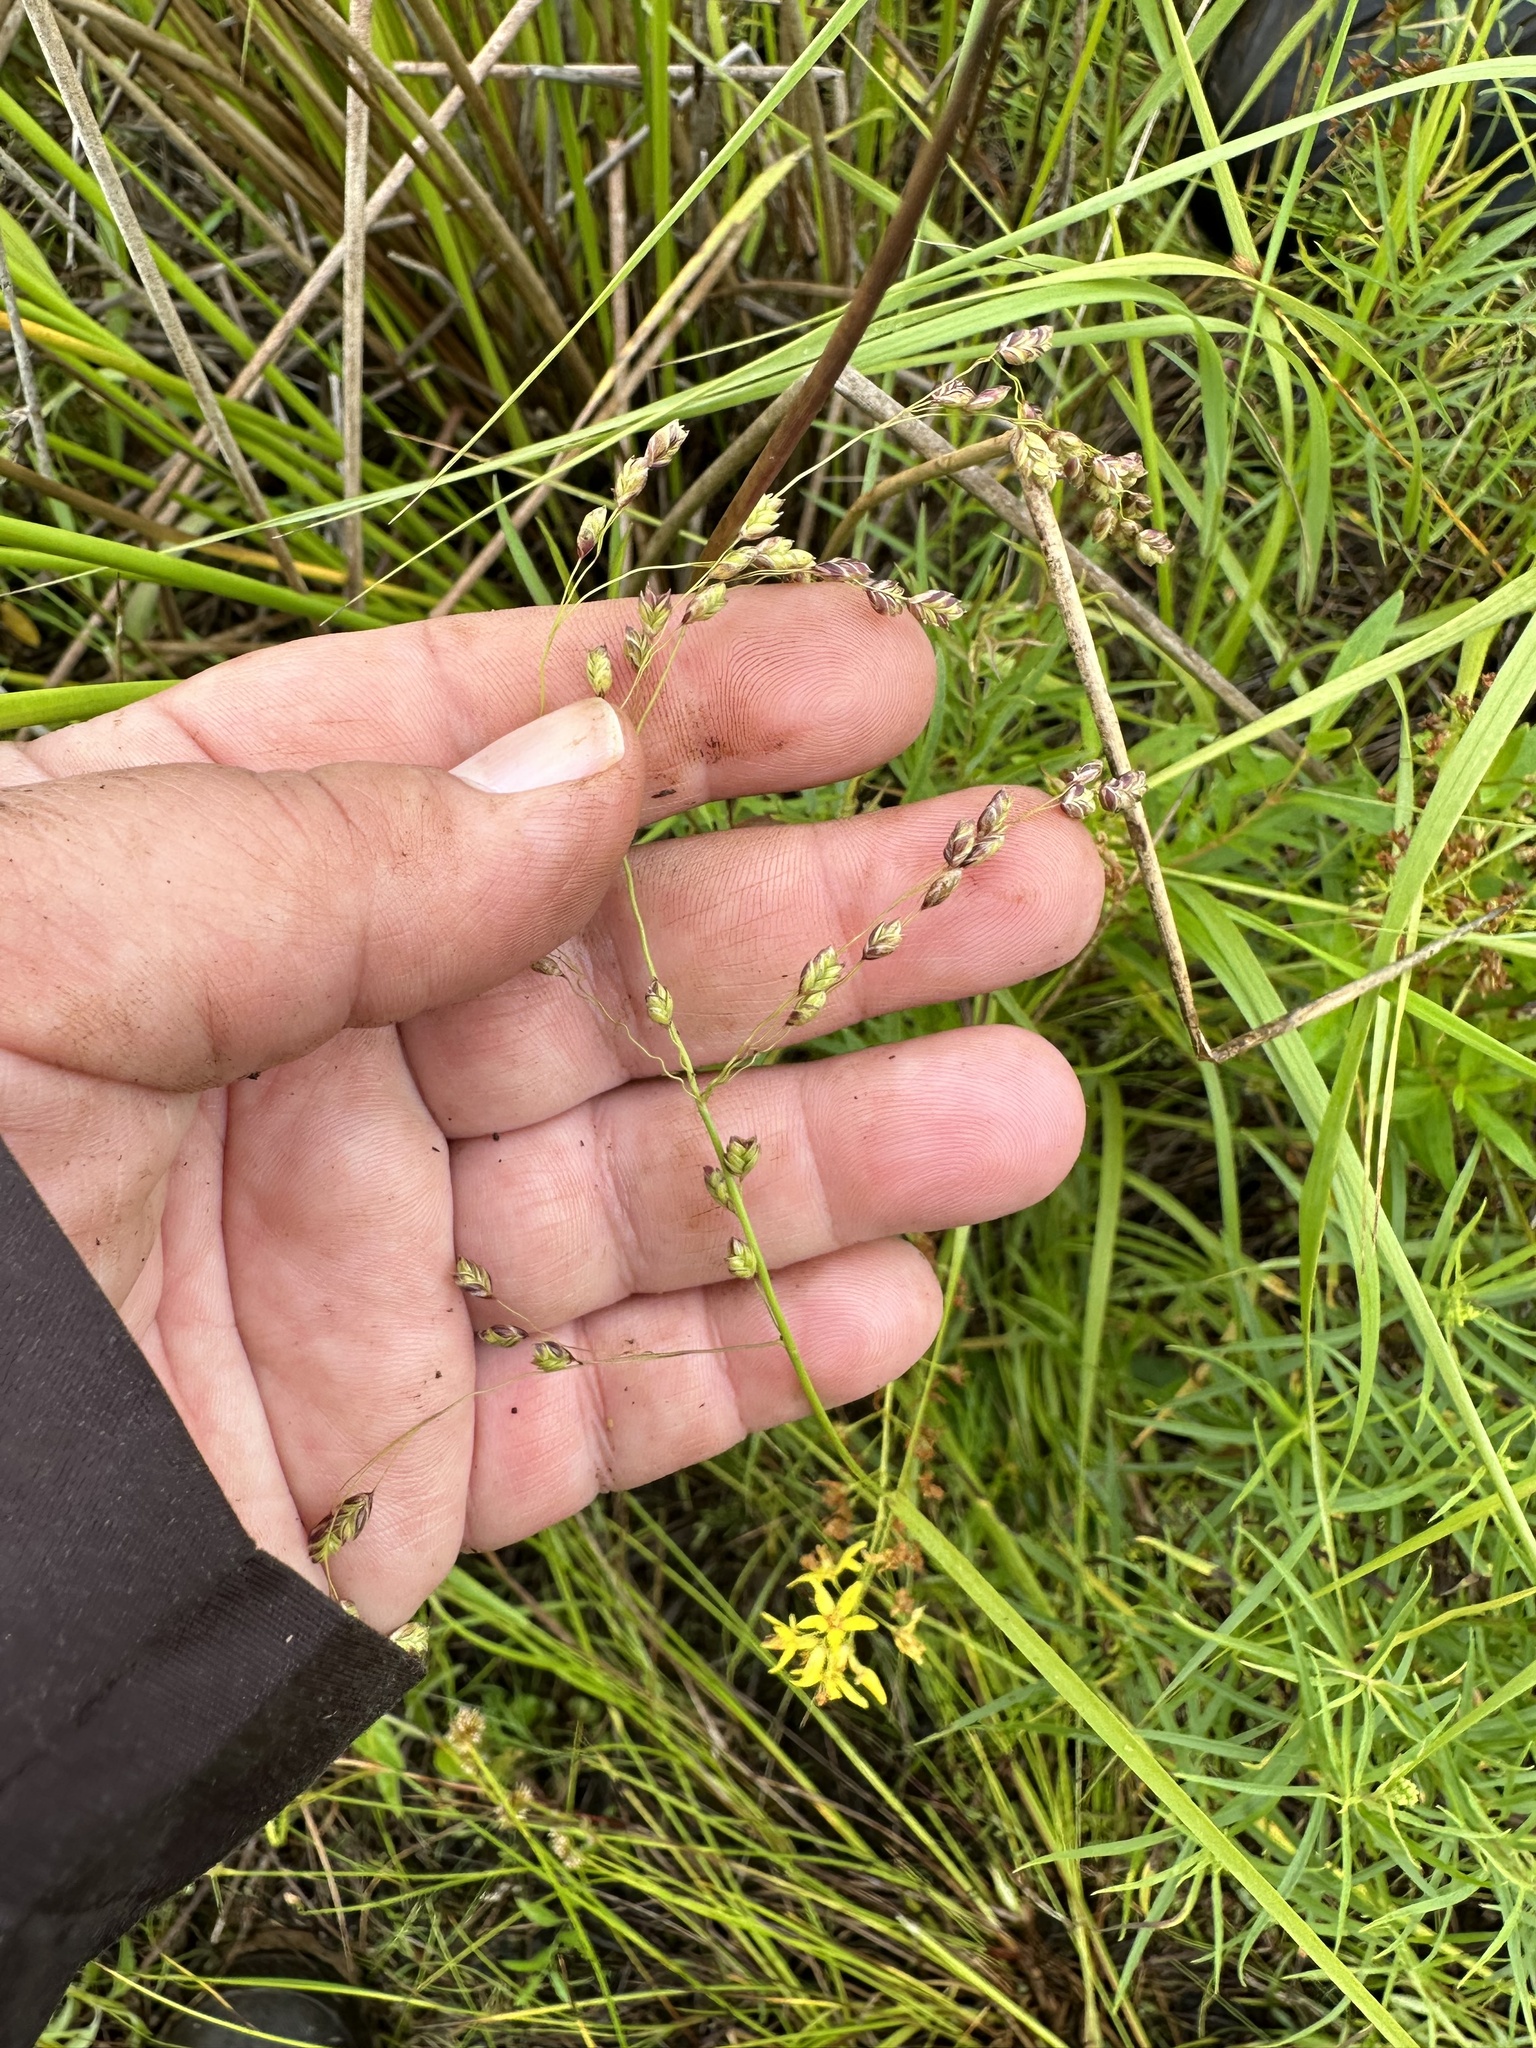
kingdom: Plantae
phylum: Tracheophyta
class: Liliopsida
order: Poales
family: Poaceae
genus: Glyceria
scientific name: Glyceria canadensis
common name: Canada mannagrass
